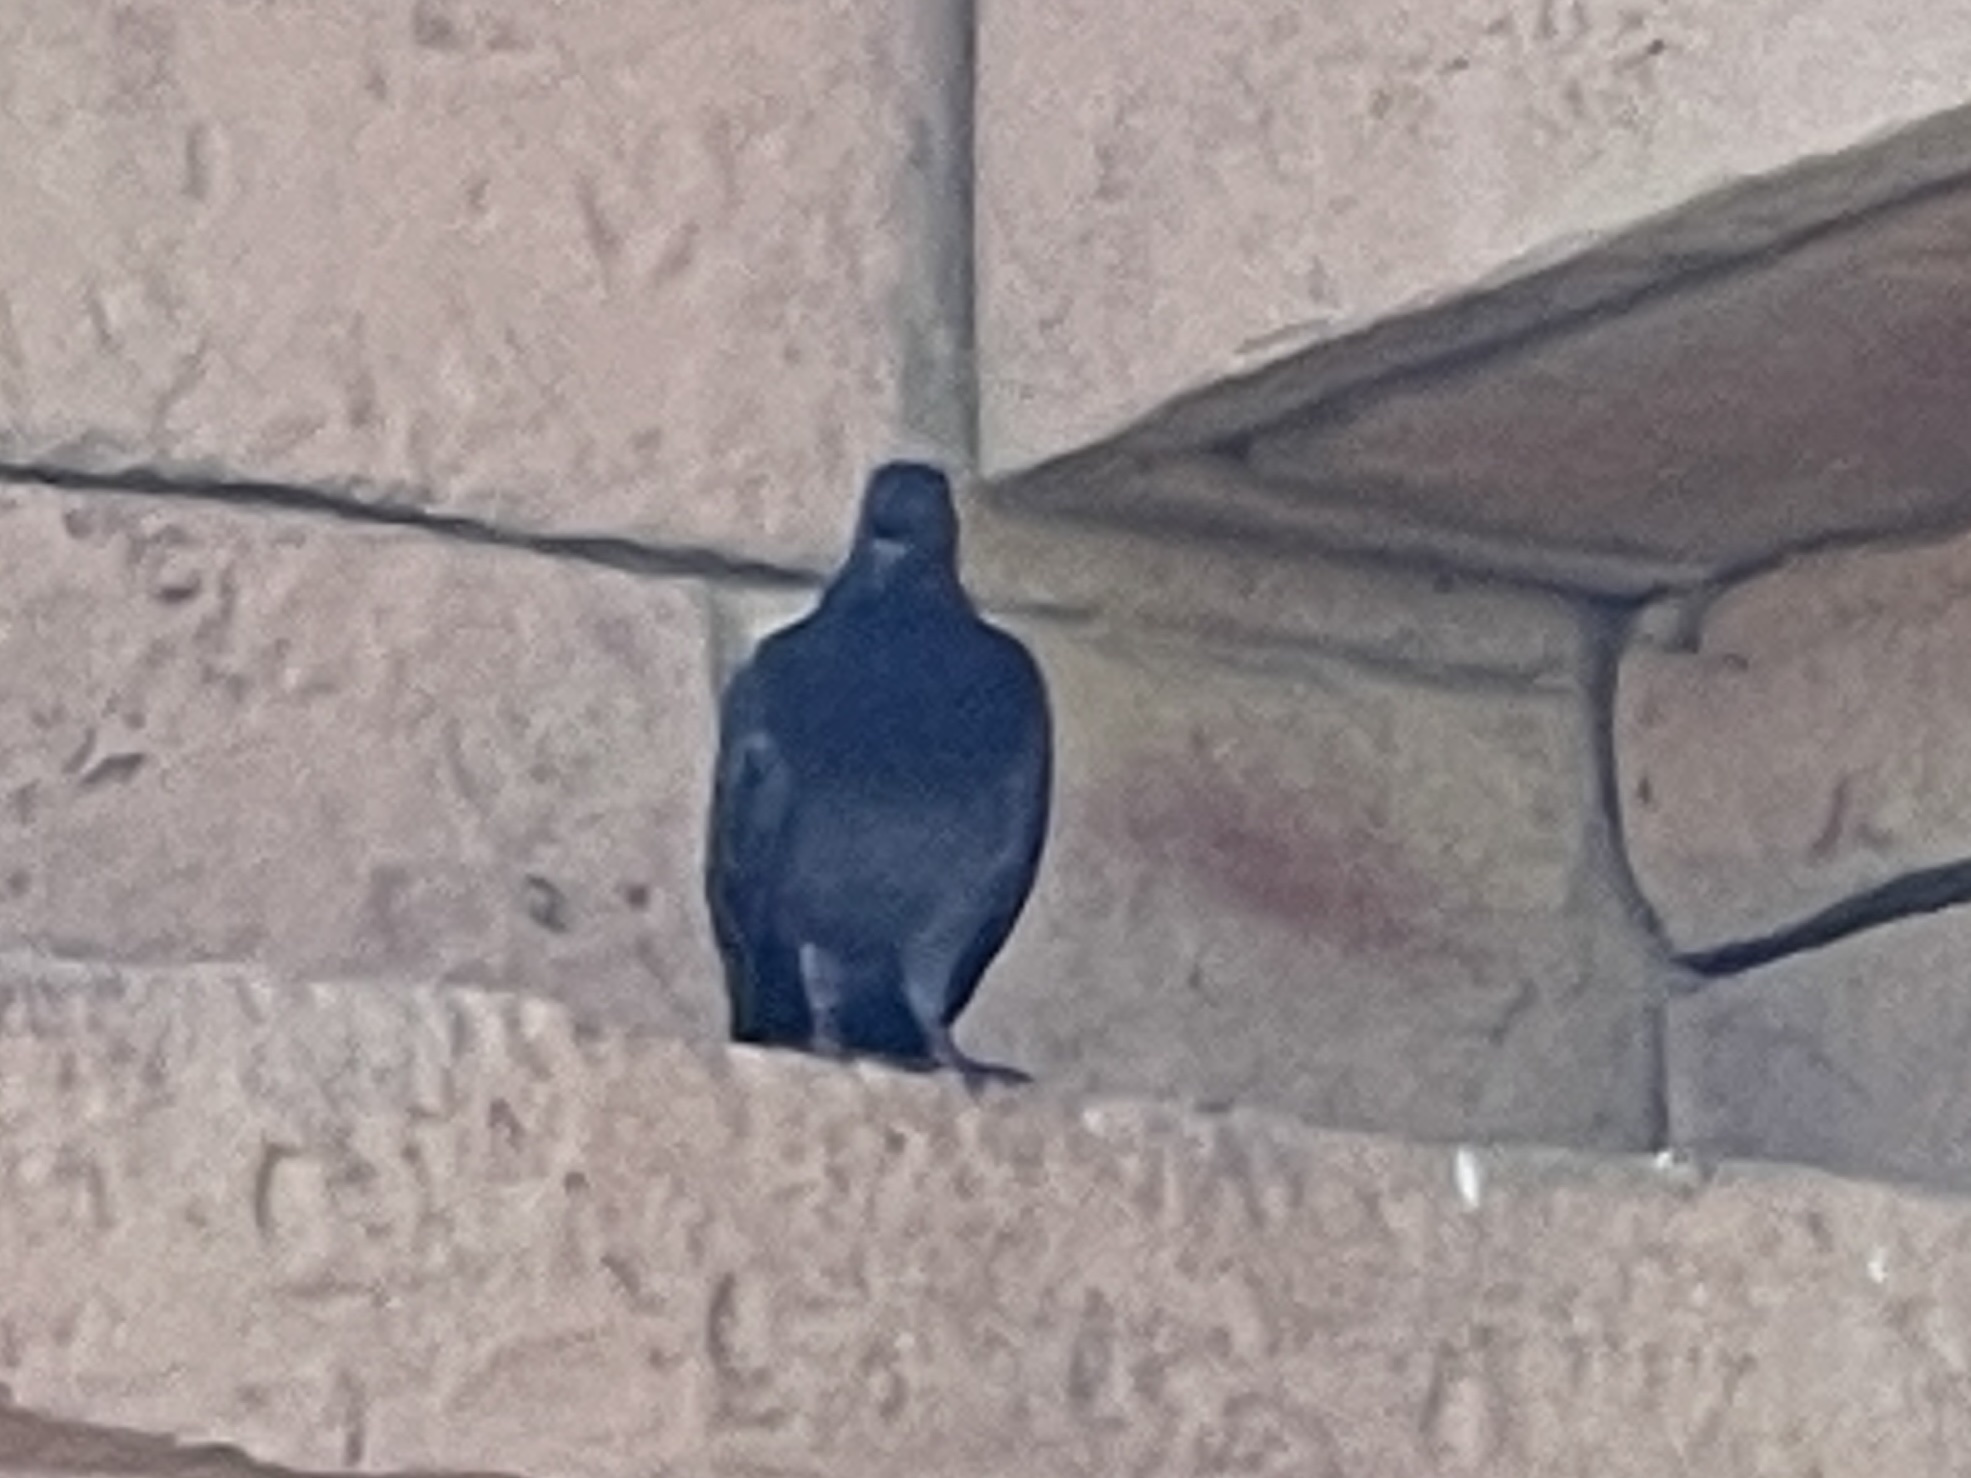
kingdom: Animalia
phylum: Chordata
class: Aves
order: Columbiformes
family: Columbidae
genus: Columba
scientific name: Columba livia
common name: Rock pigeon
